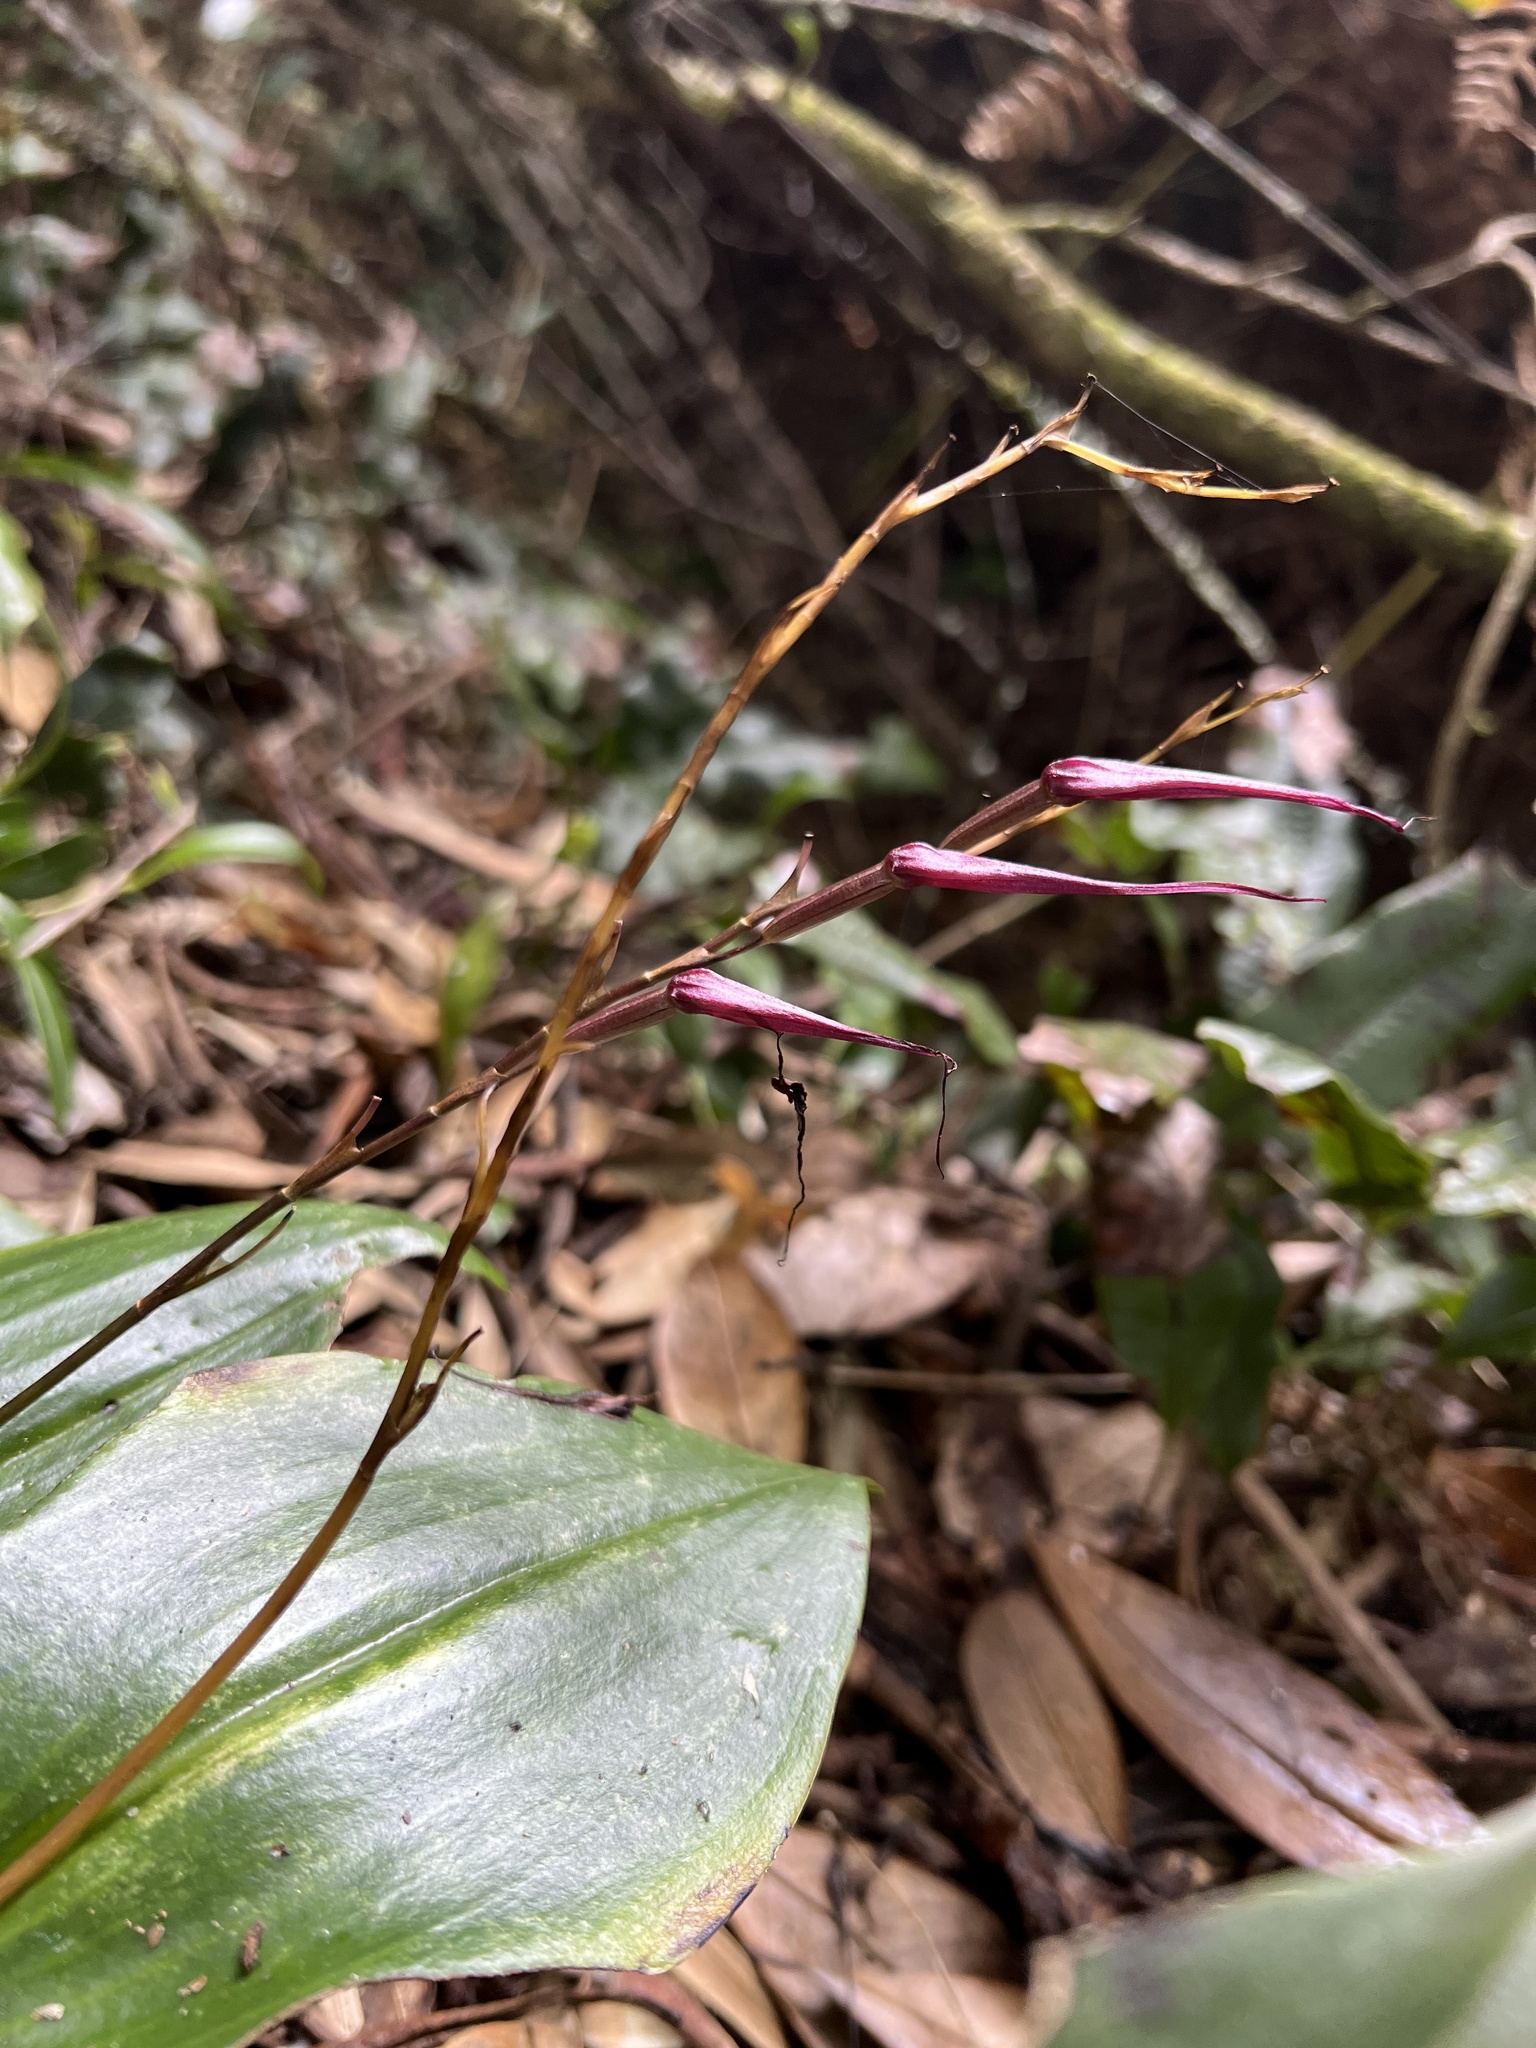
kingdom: Plantae
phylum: Tracheophyta
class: Liliopsida
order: Asparagales
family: Orchidaceae
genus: Pleurothallis
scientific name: Pleurothallis phalangifera
